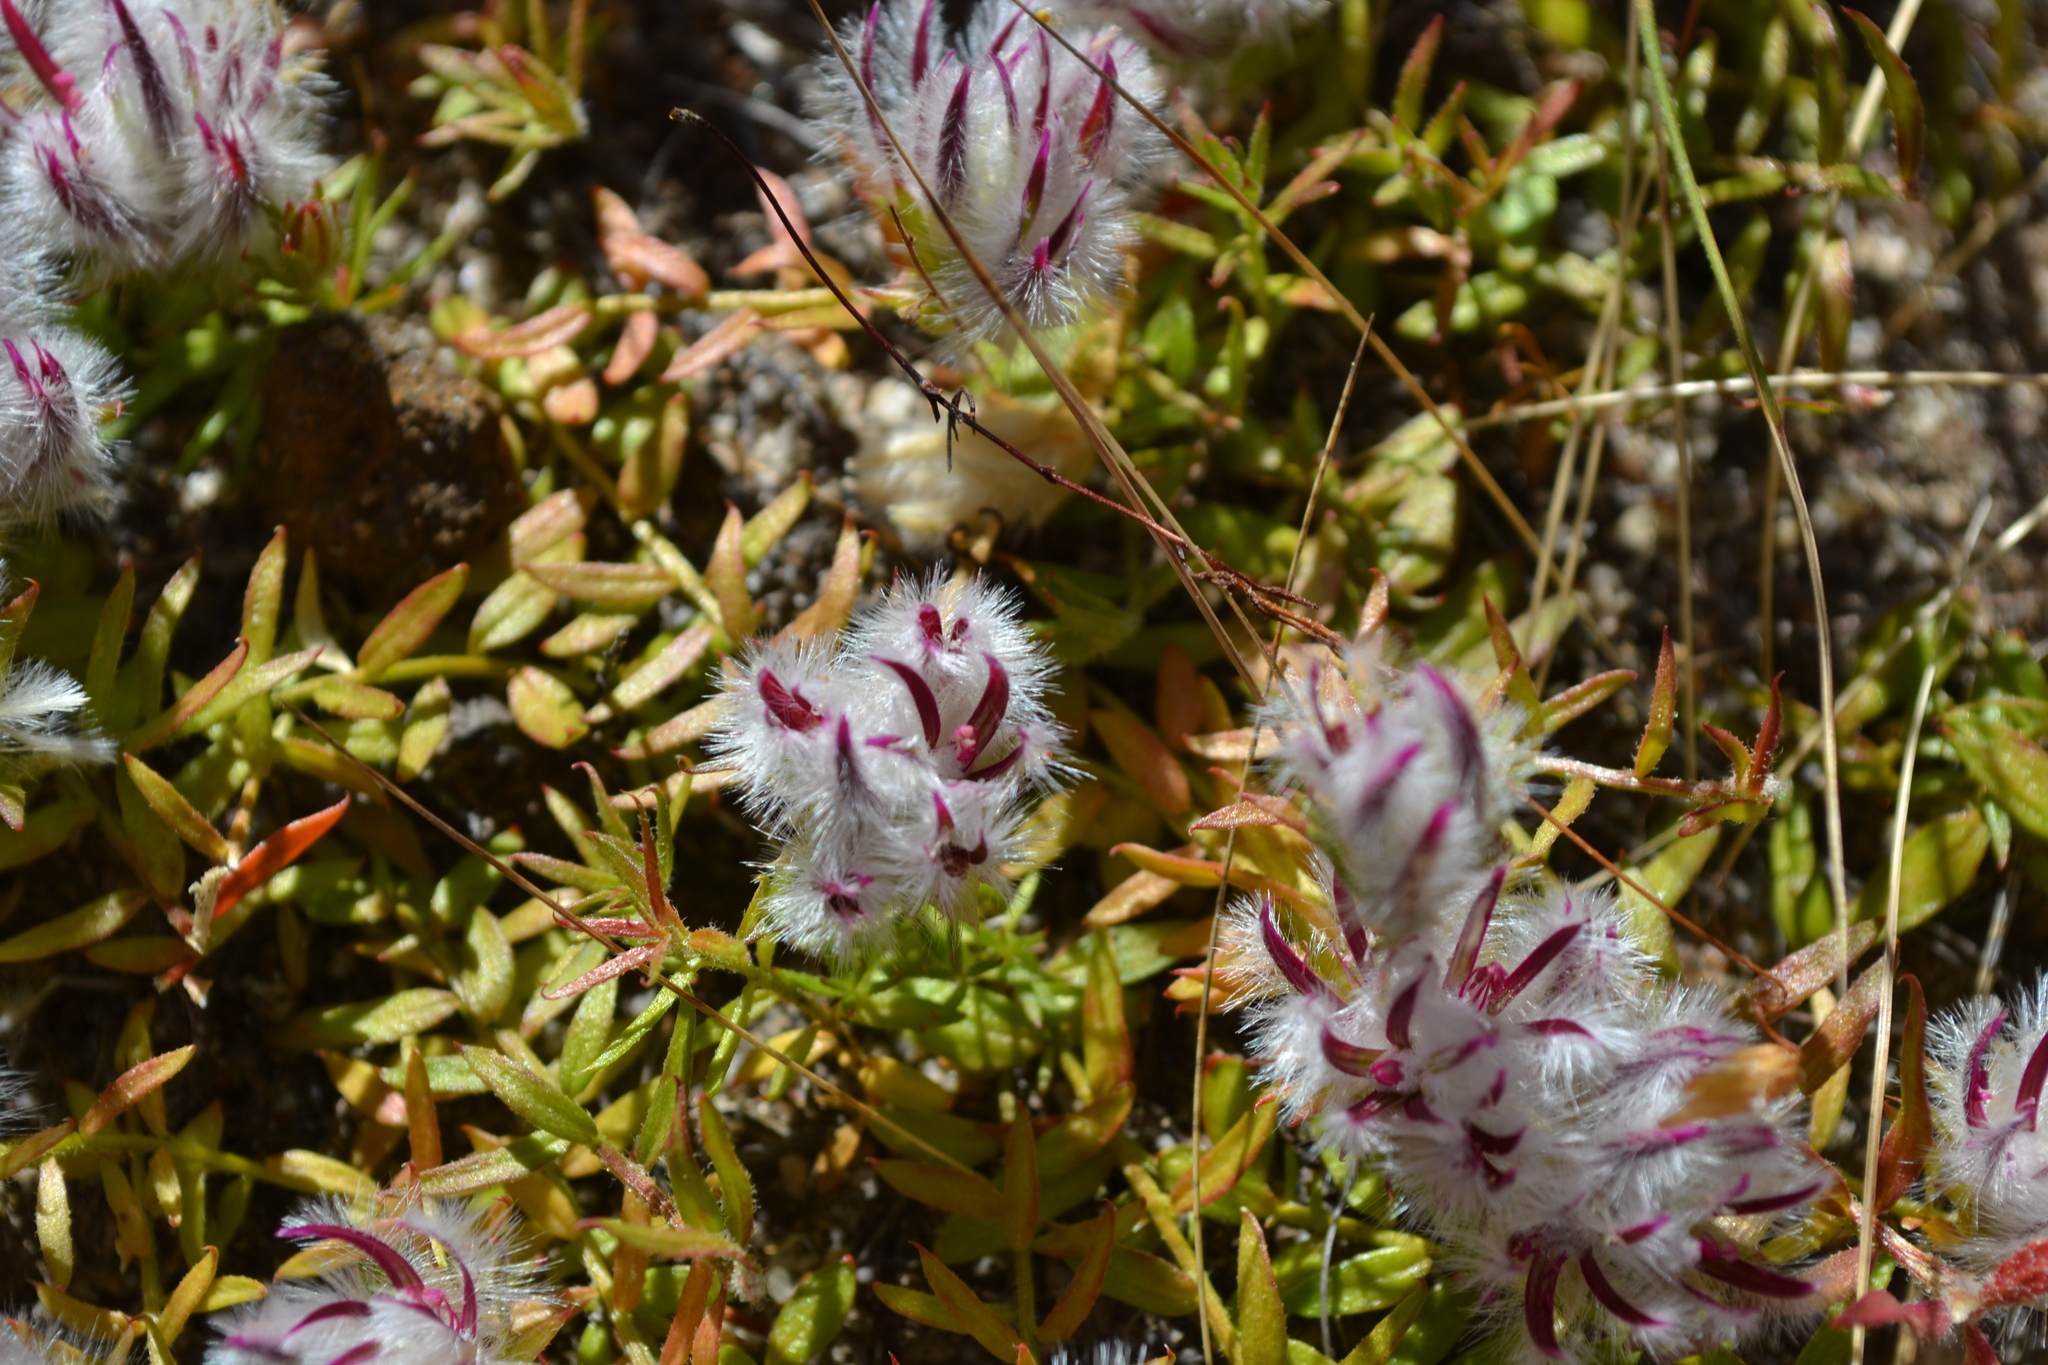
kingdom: Plantae
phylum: Tracheophyta
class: Magnoliopsida
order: Caryophyllales
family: Amaranthaceae
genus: Ptilotus
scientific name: Ptilotus declinatus
